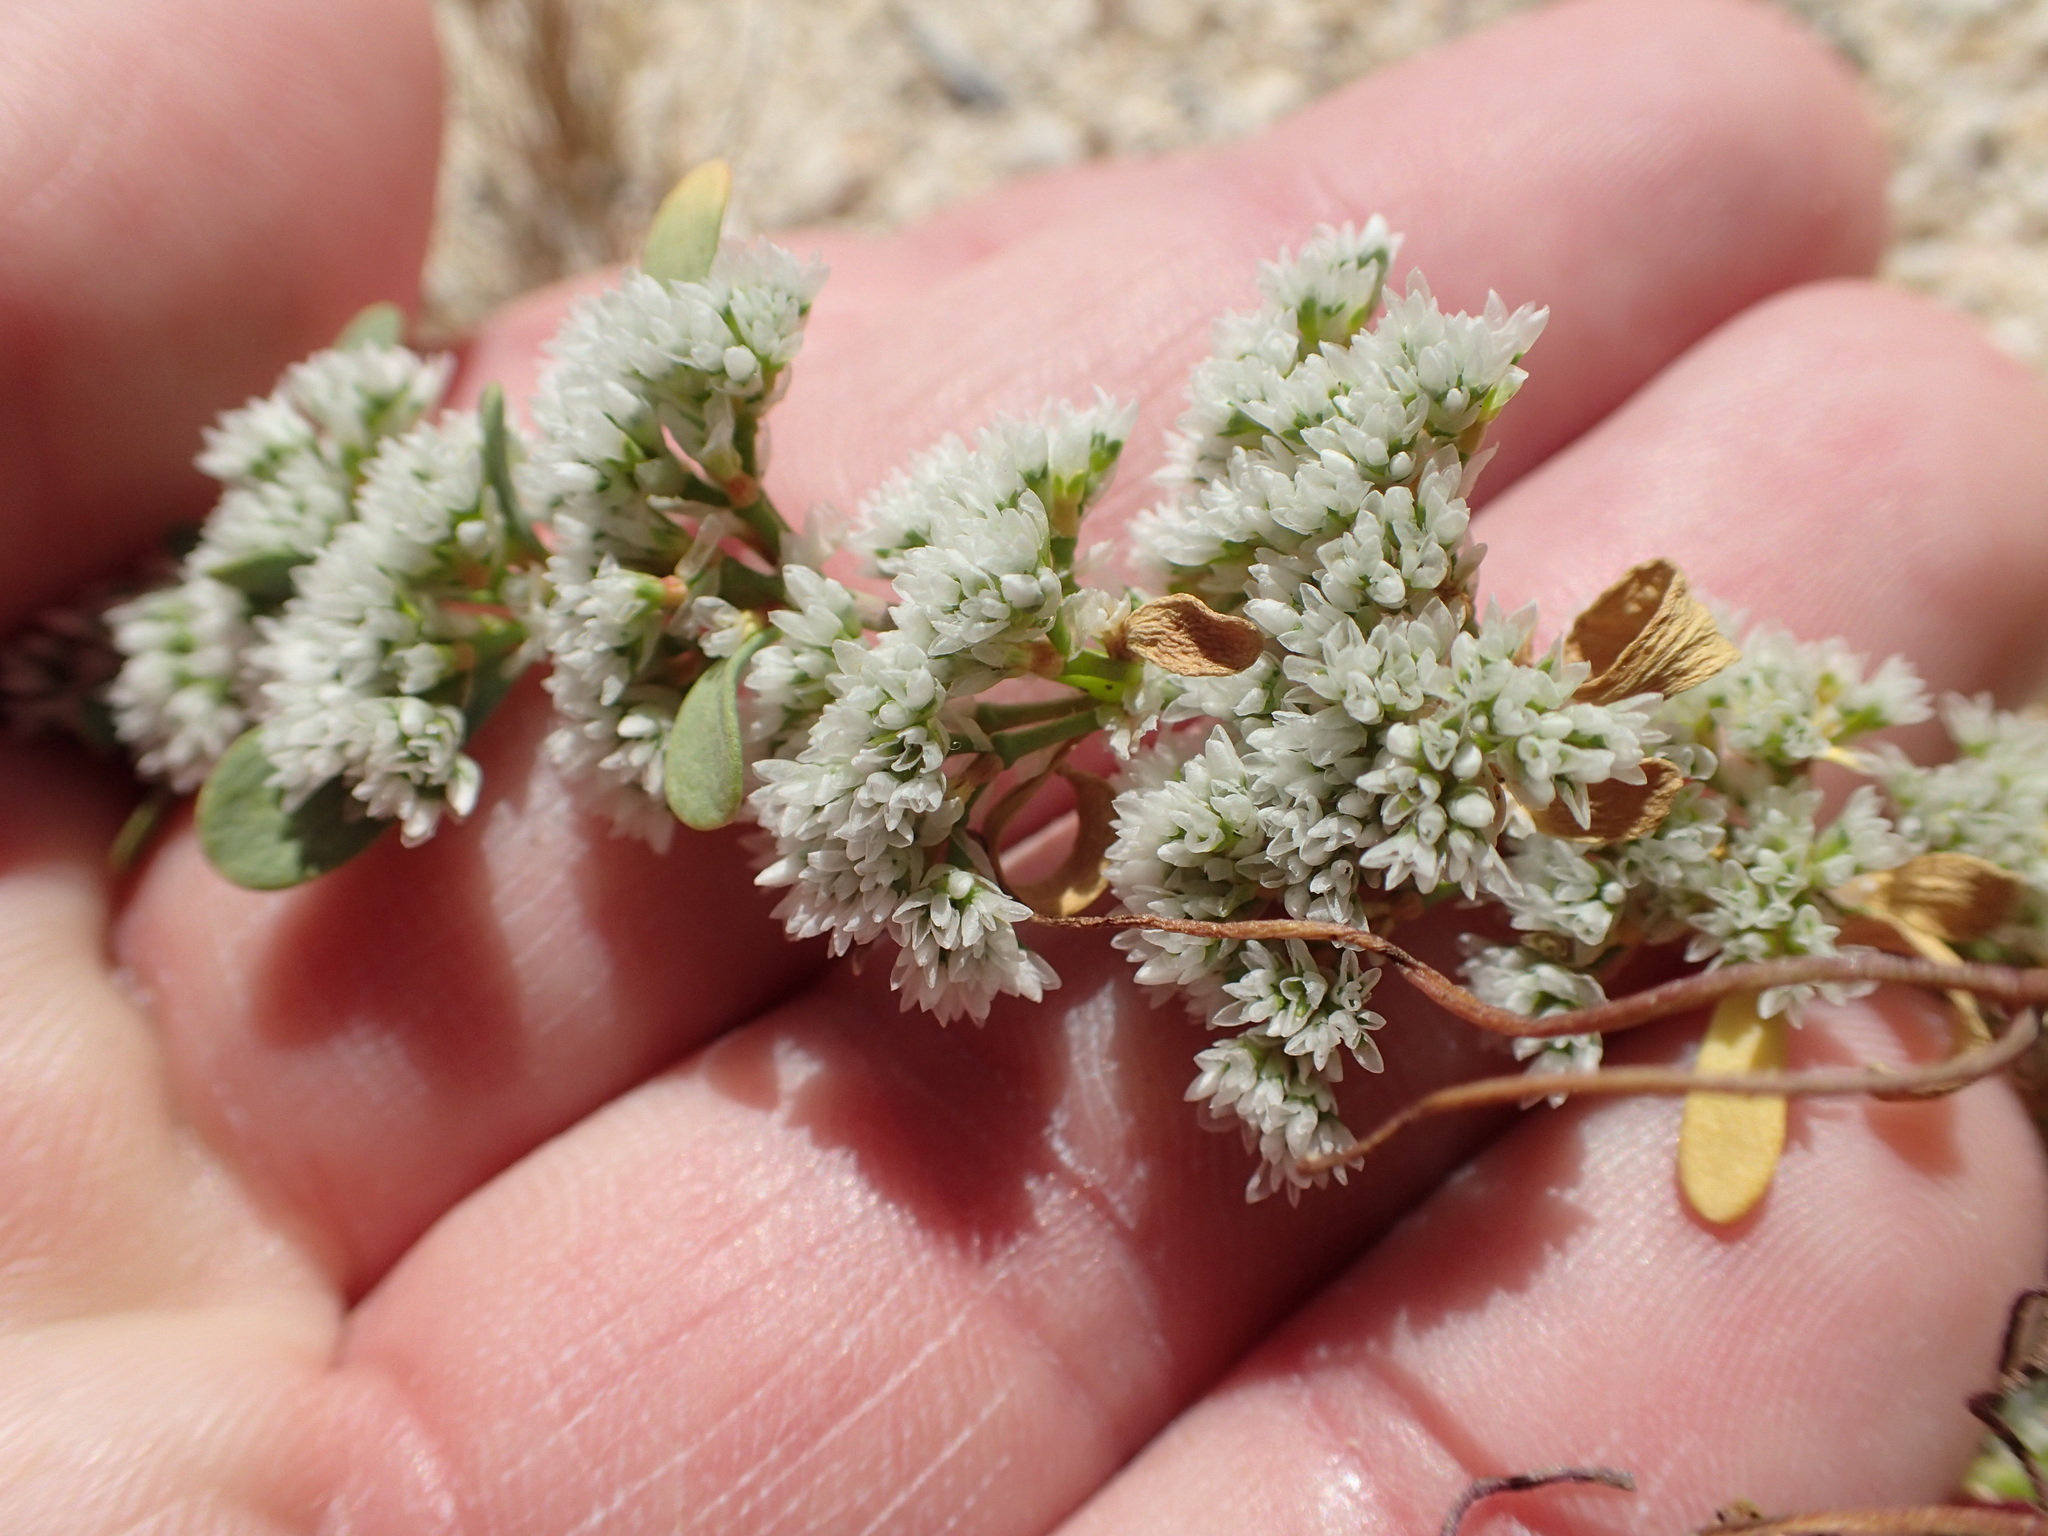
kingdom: Plantae
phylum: Tracheophyta
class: Magnoliopsida
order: Caryophyllales
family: Caryophyllaceae
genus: Achyronychia
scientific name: Achyronychia cooperi
